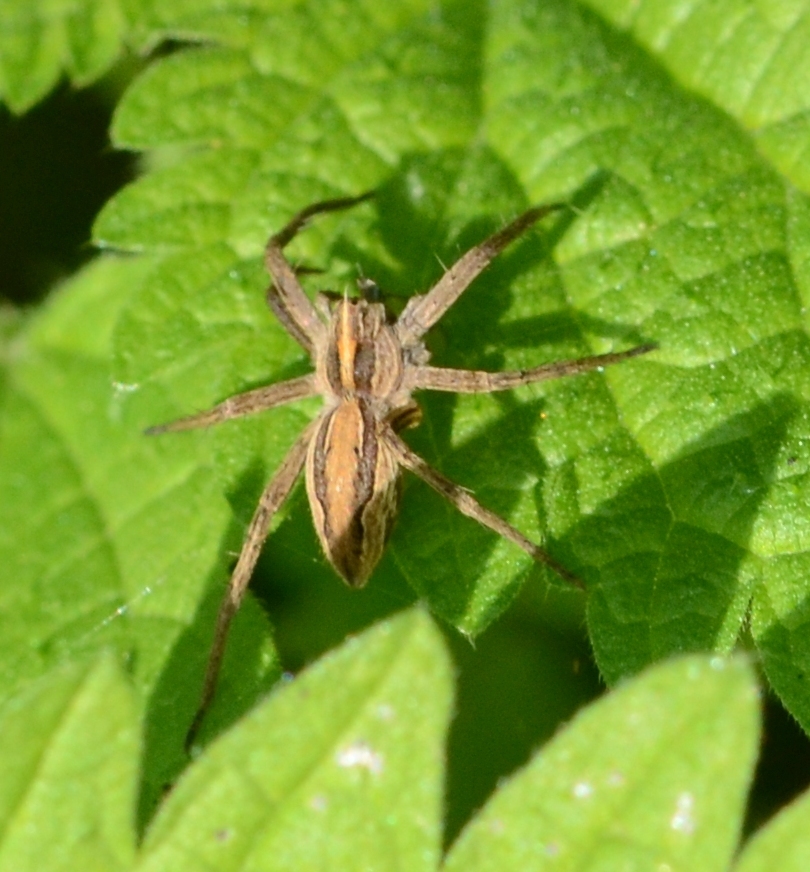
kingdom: Animalia
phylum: Arthropoda
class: Arachnida
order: Araneae
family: Pisauridae
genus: Pisaura
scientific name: Pisaura mirabilis
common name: Tent spider
